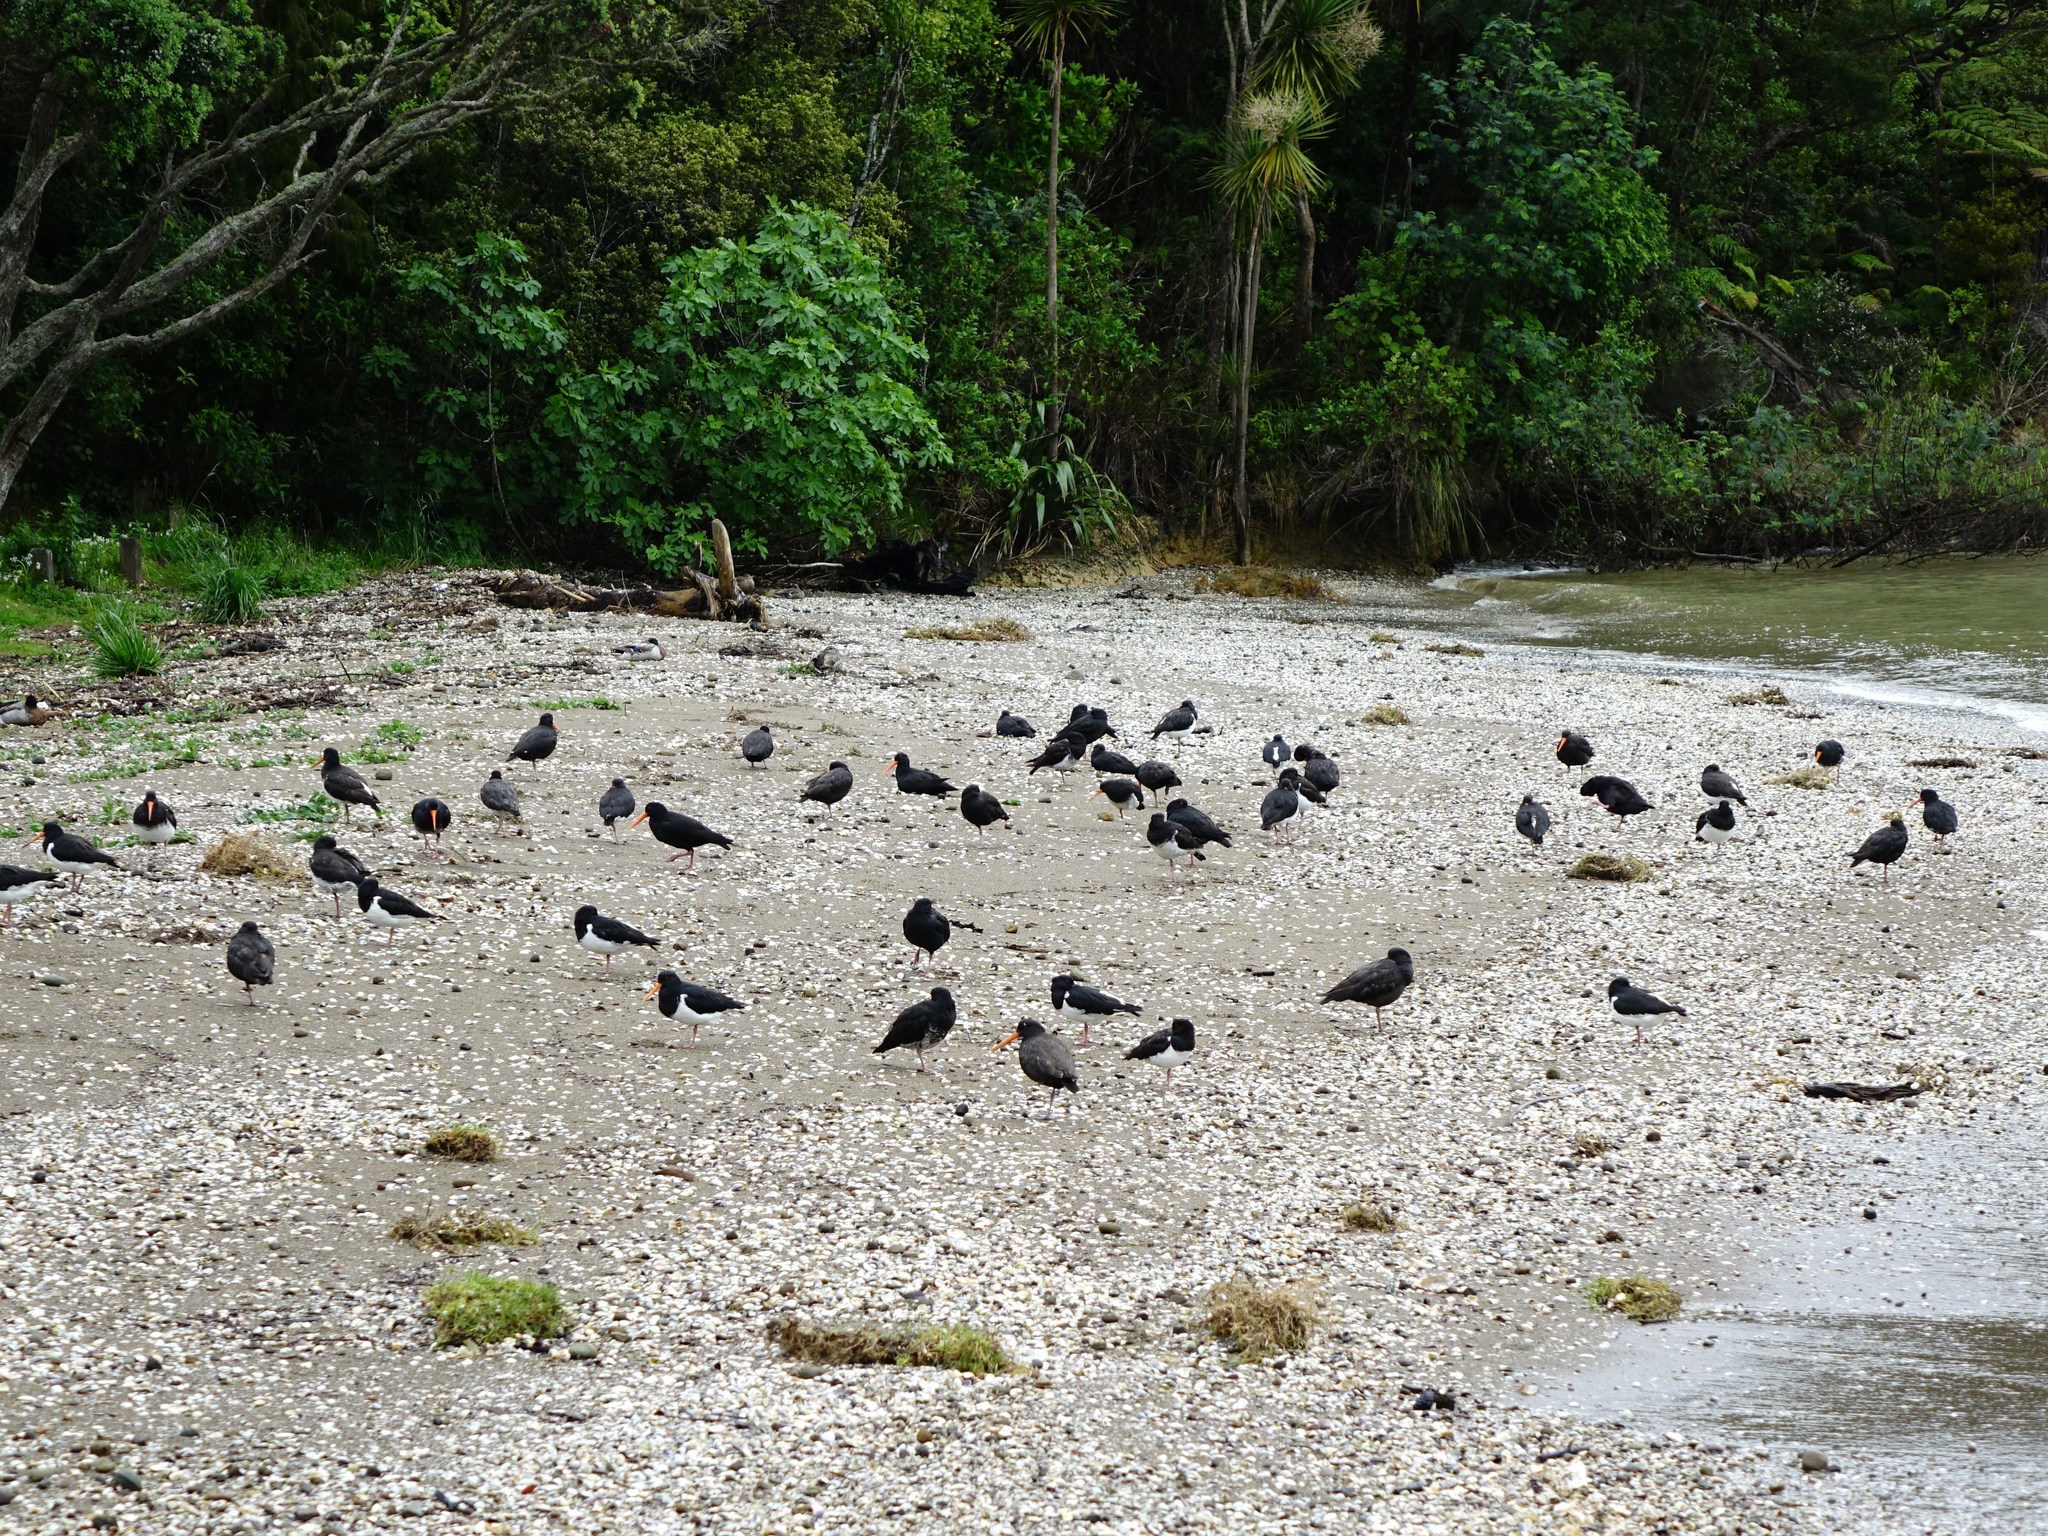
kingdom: Animalia
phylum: Chordata
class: Aves
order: Charadriiformes
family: Haematopodidae
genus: Haematopus
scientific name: Haematopus unicolor
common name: Variable oystercatcher
